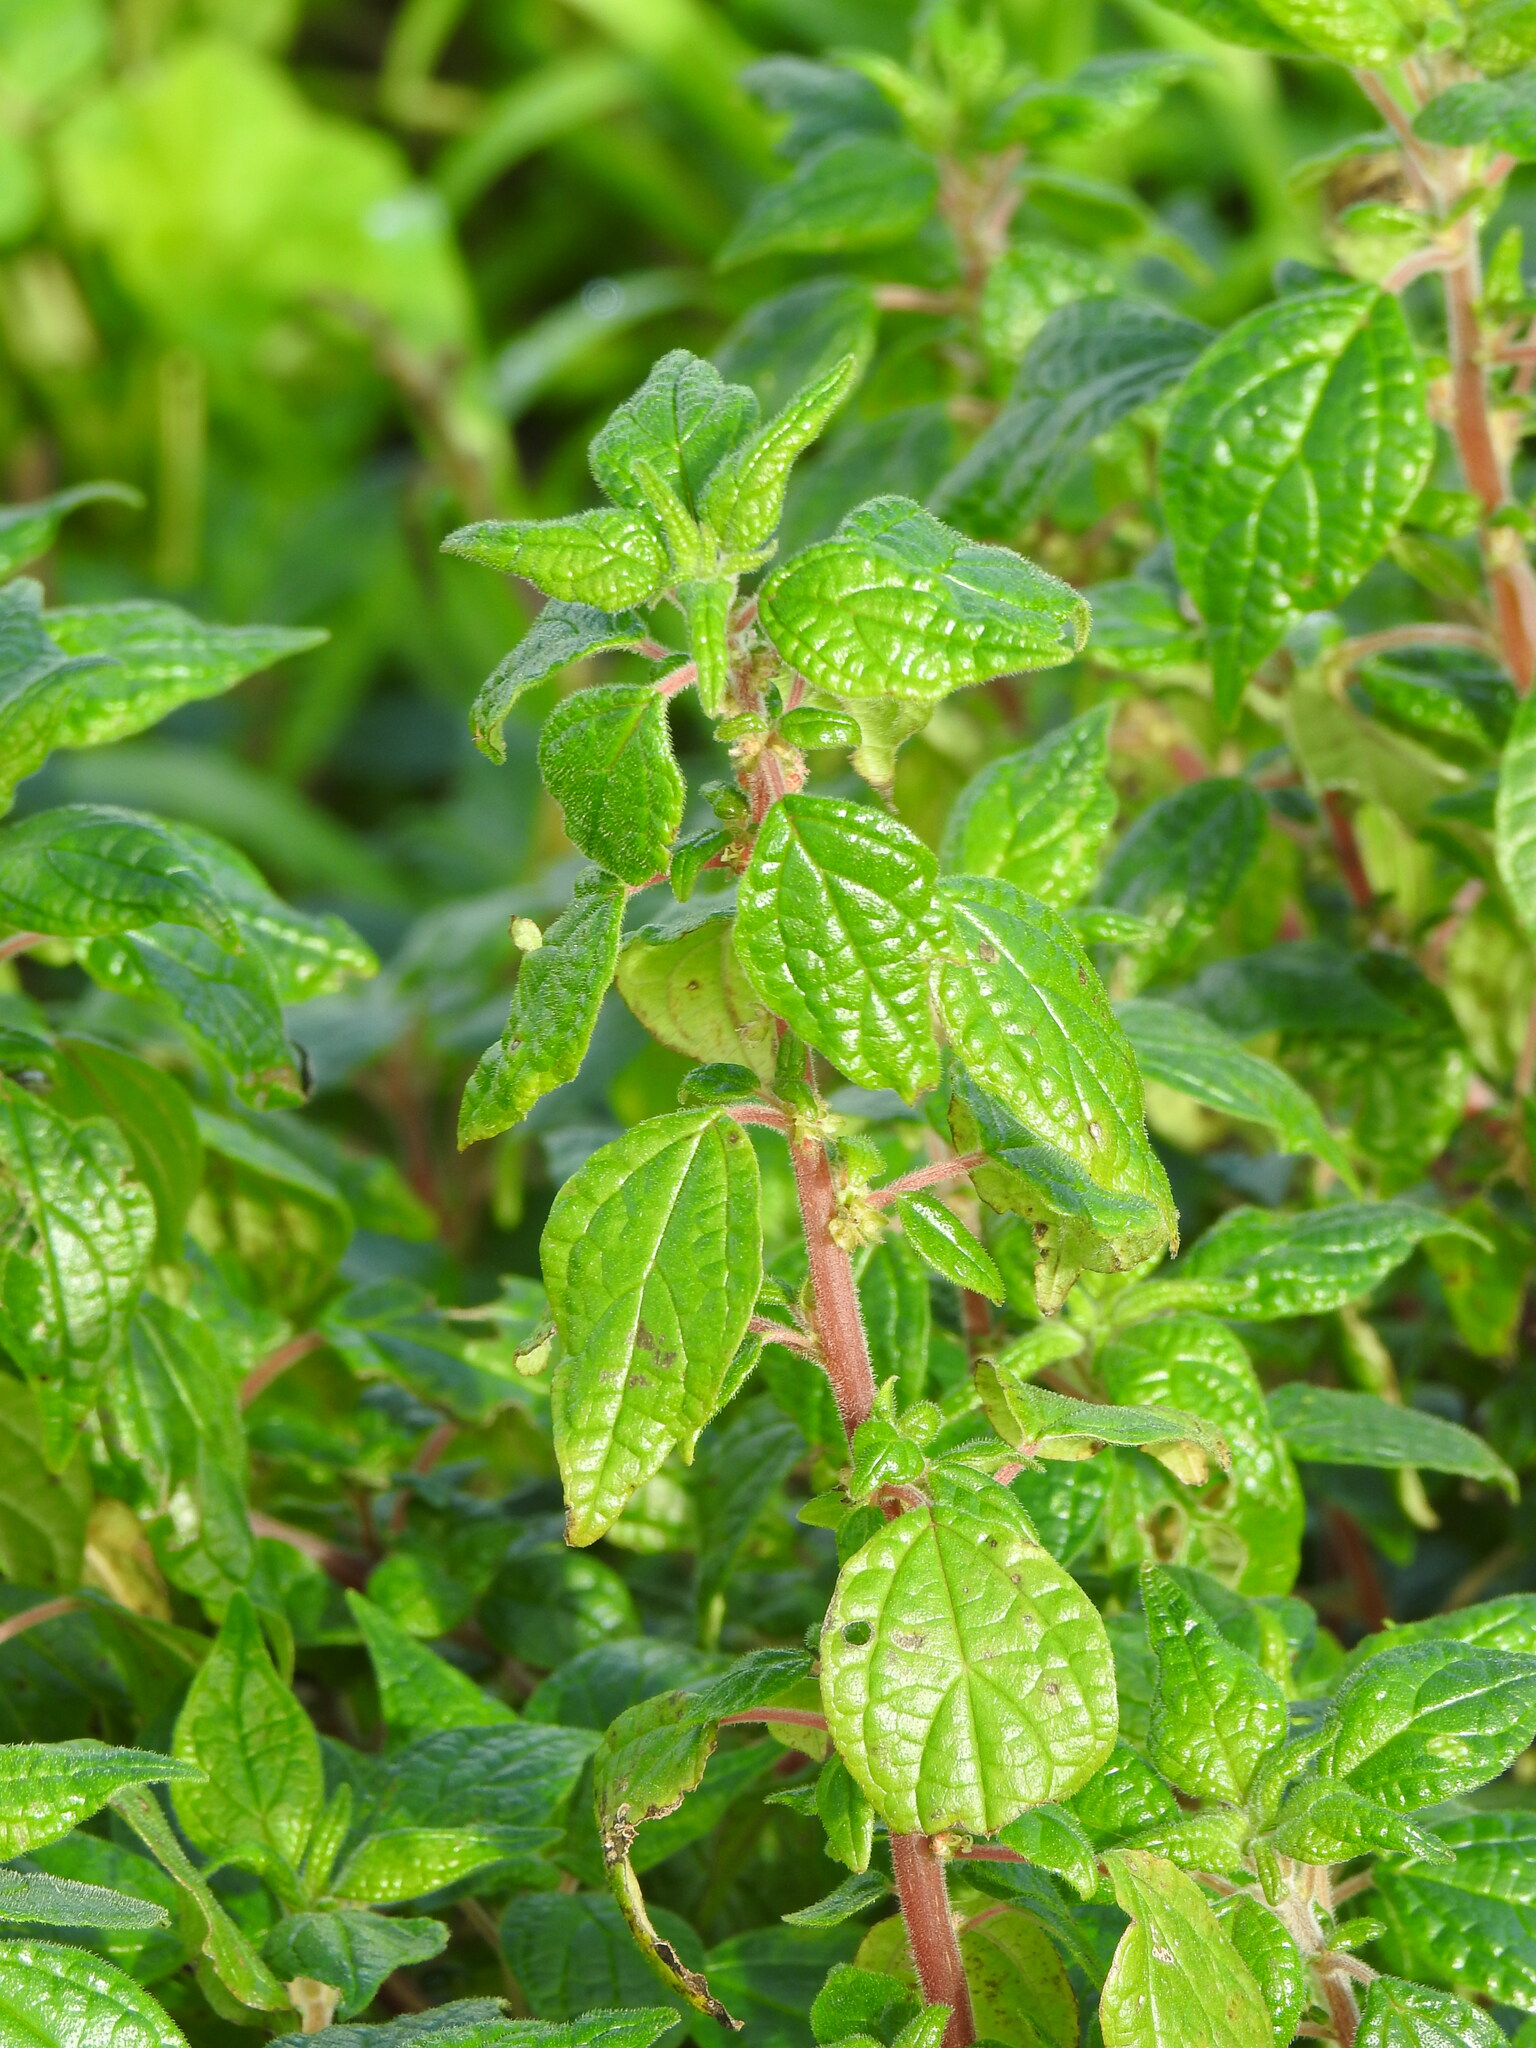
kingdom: Plantae
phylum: Tracheophyta
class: Magnoliopsida
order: Rosales
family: Urticaceae
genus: Parietaria
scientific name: Parietaria judaica
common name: Pellitory-of-the-wall
